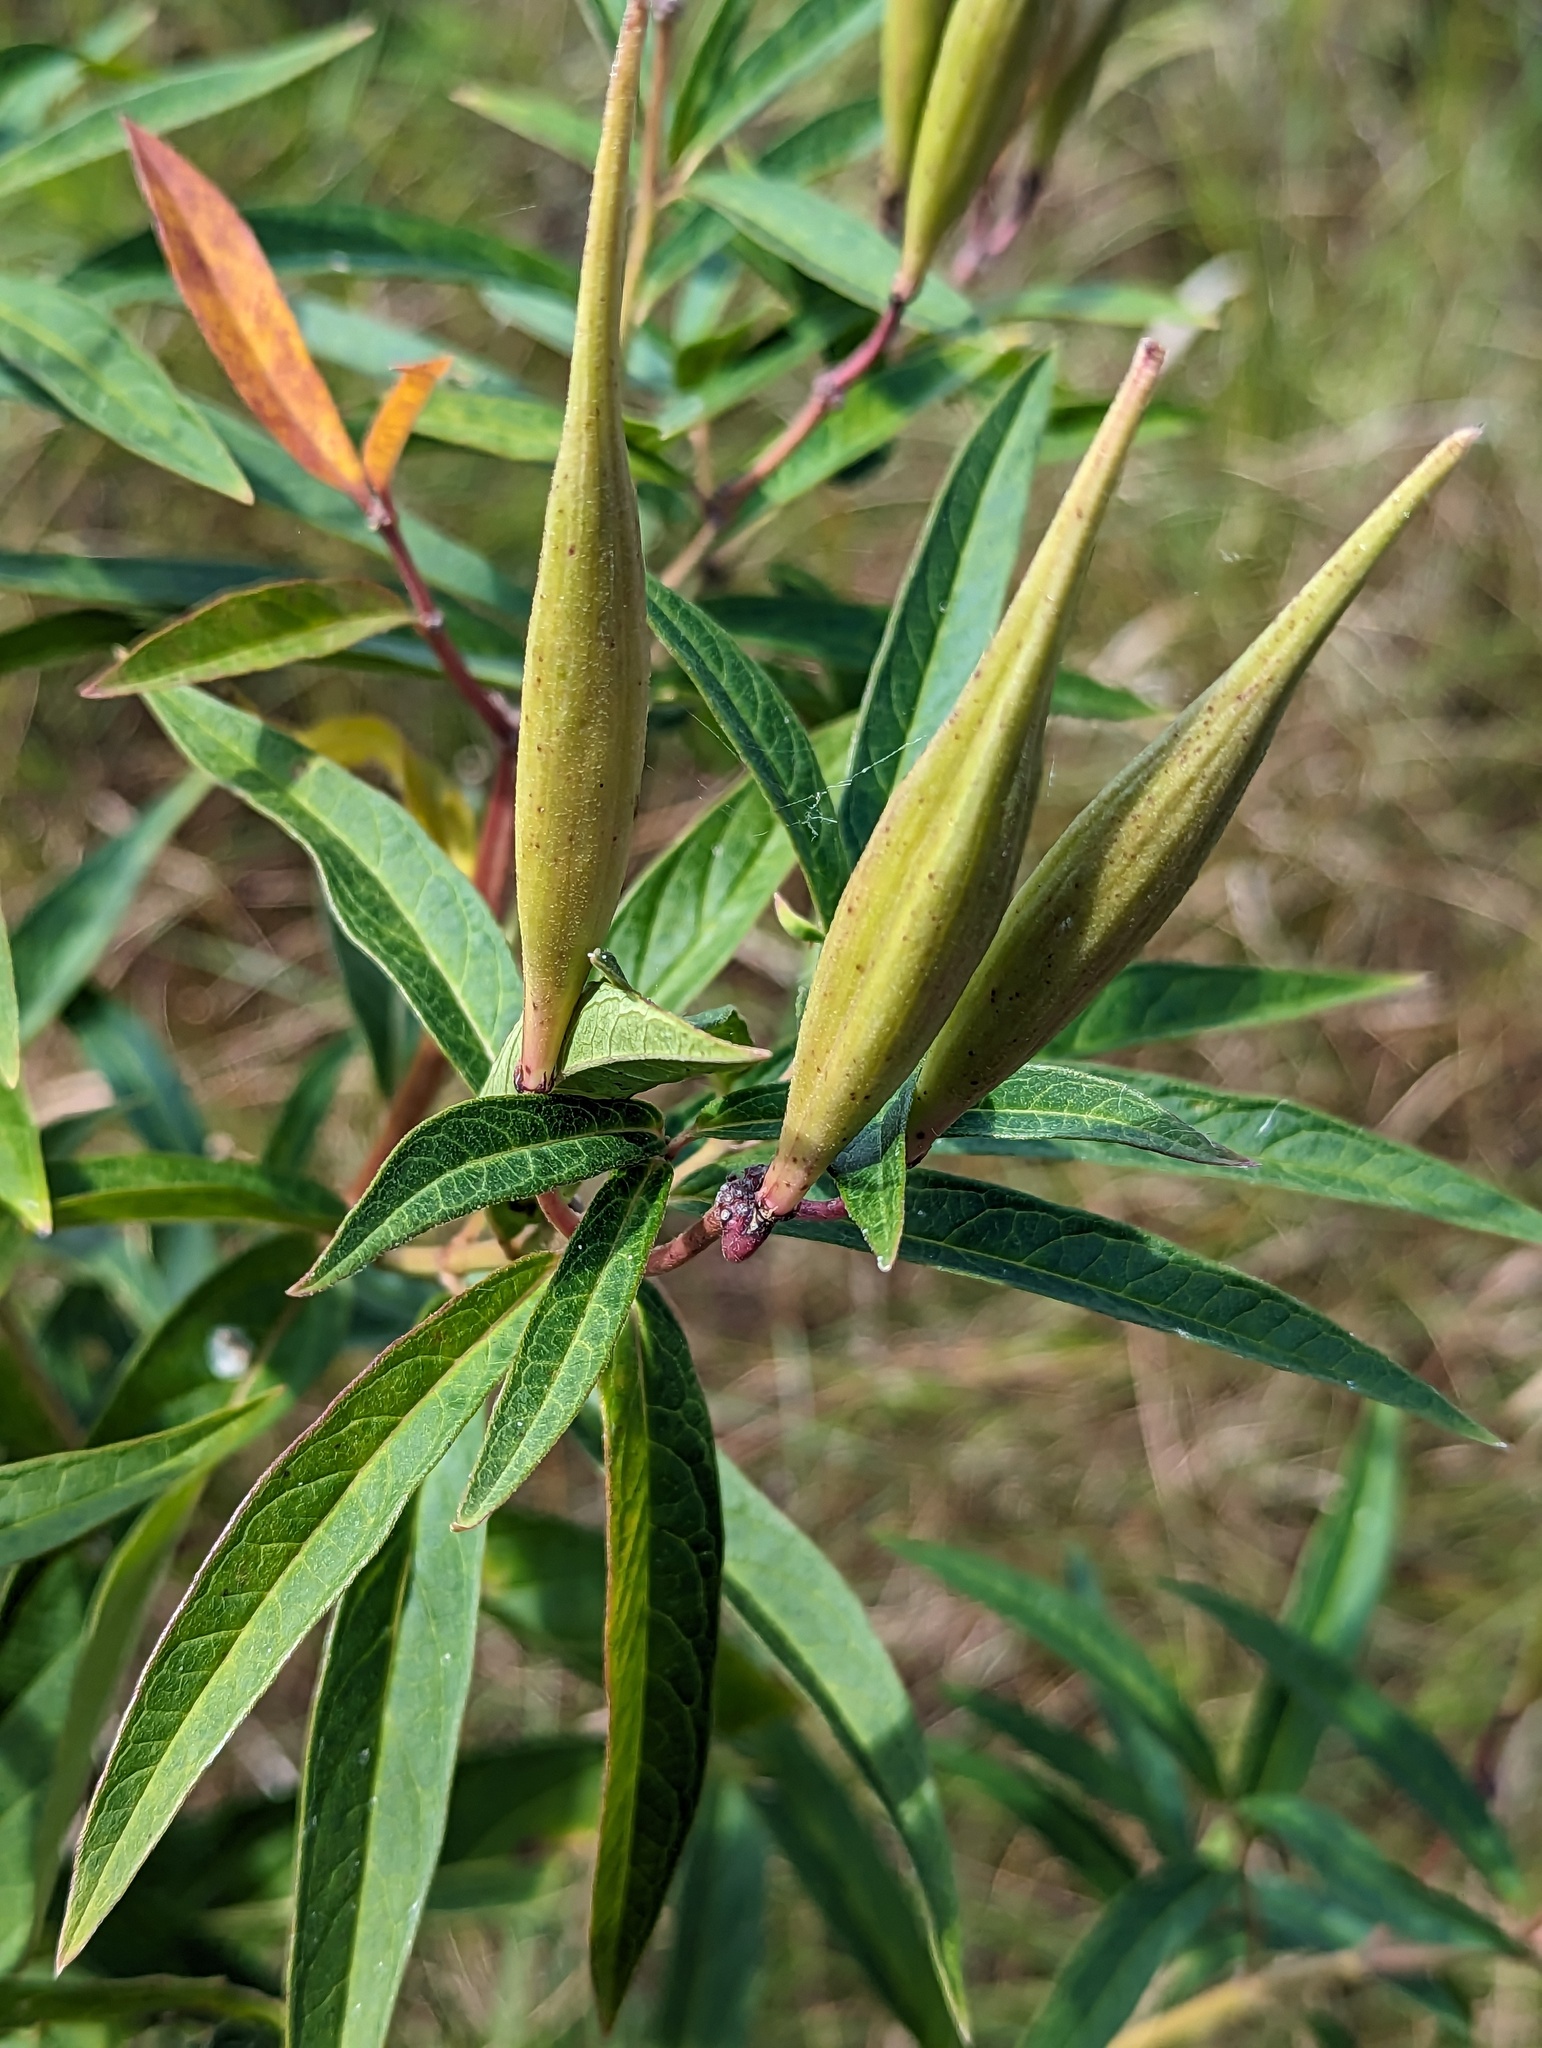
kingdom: Plantae
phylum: Tracheophyta
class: Magnoliopsida
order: Gentianales
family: Apocynaceae
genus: Asclepias
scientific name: Asclepias incarnata
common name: Swamp milkweed
